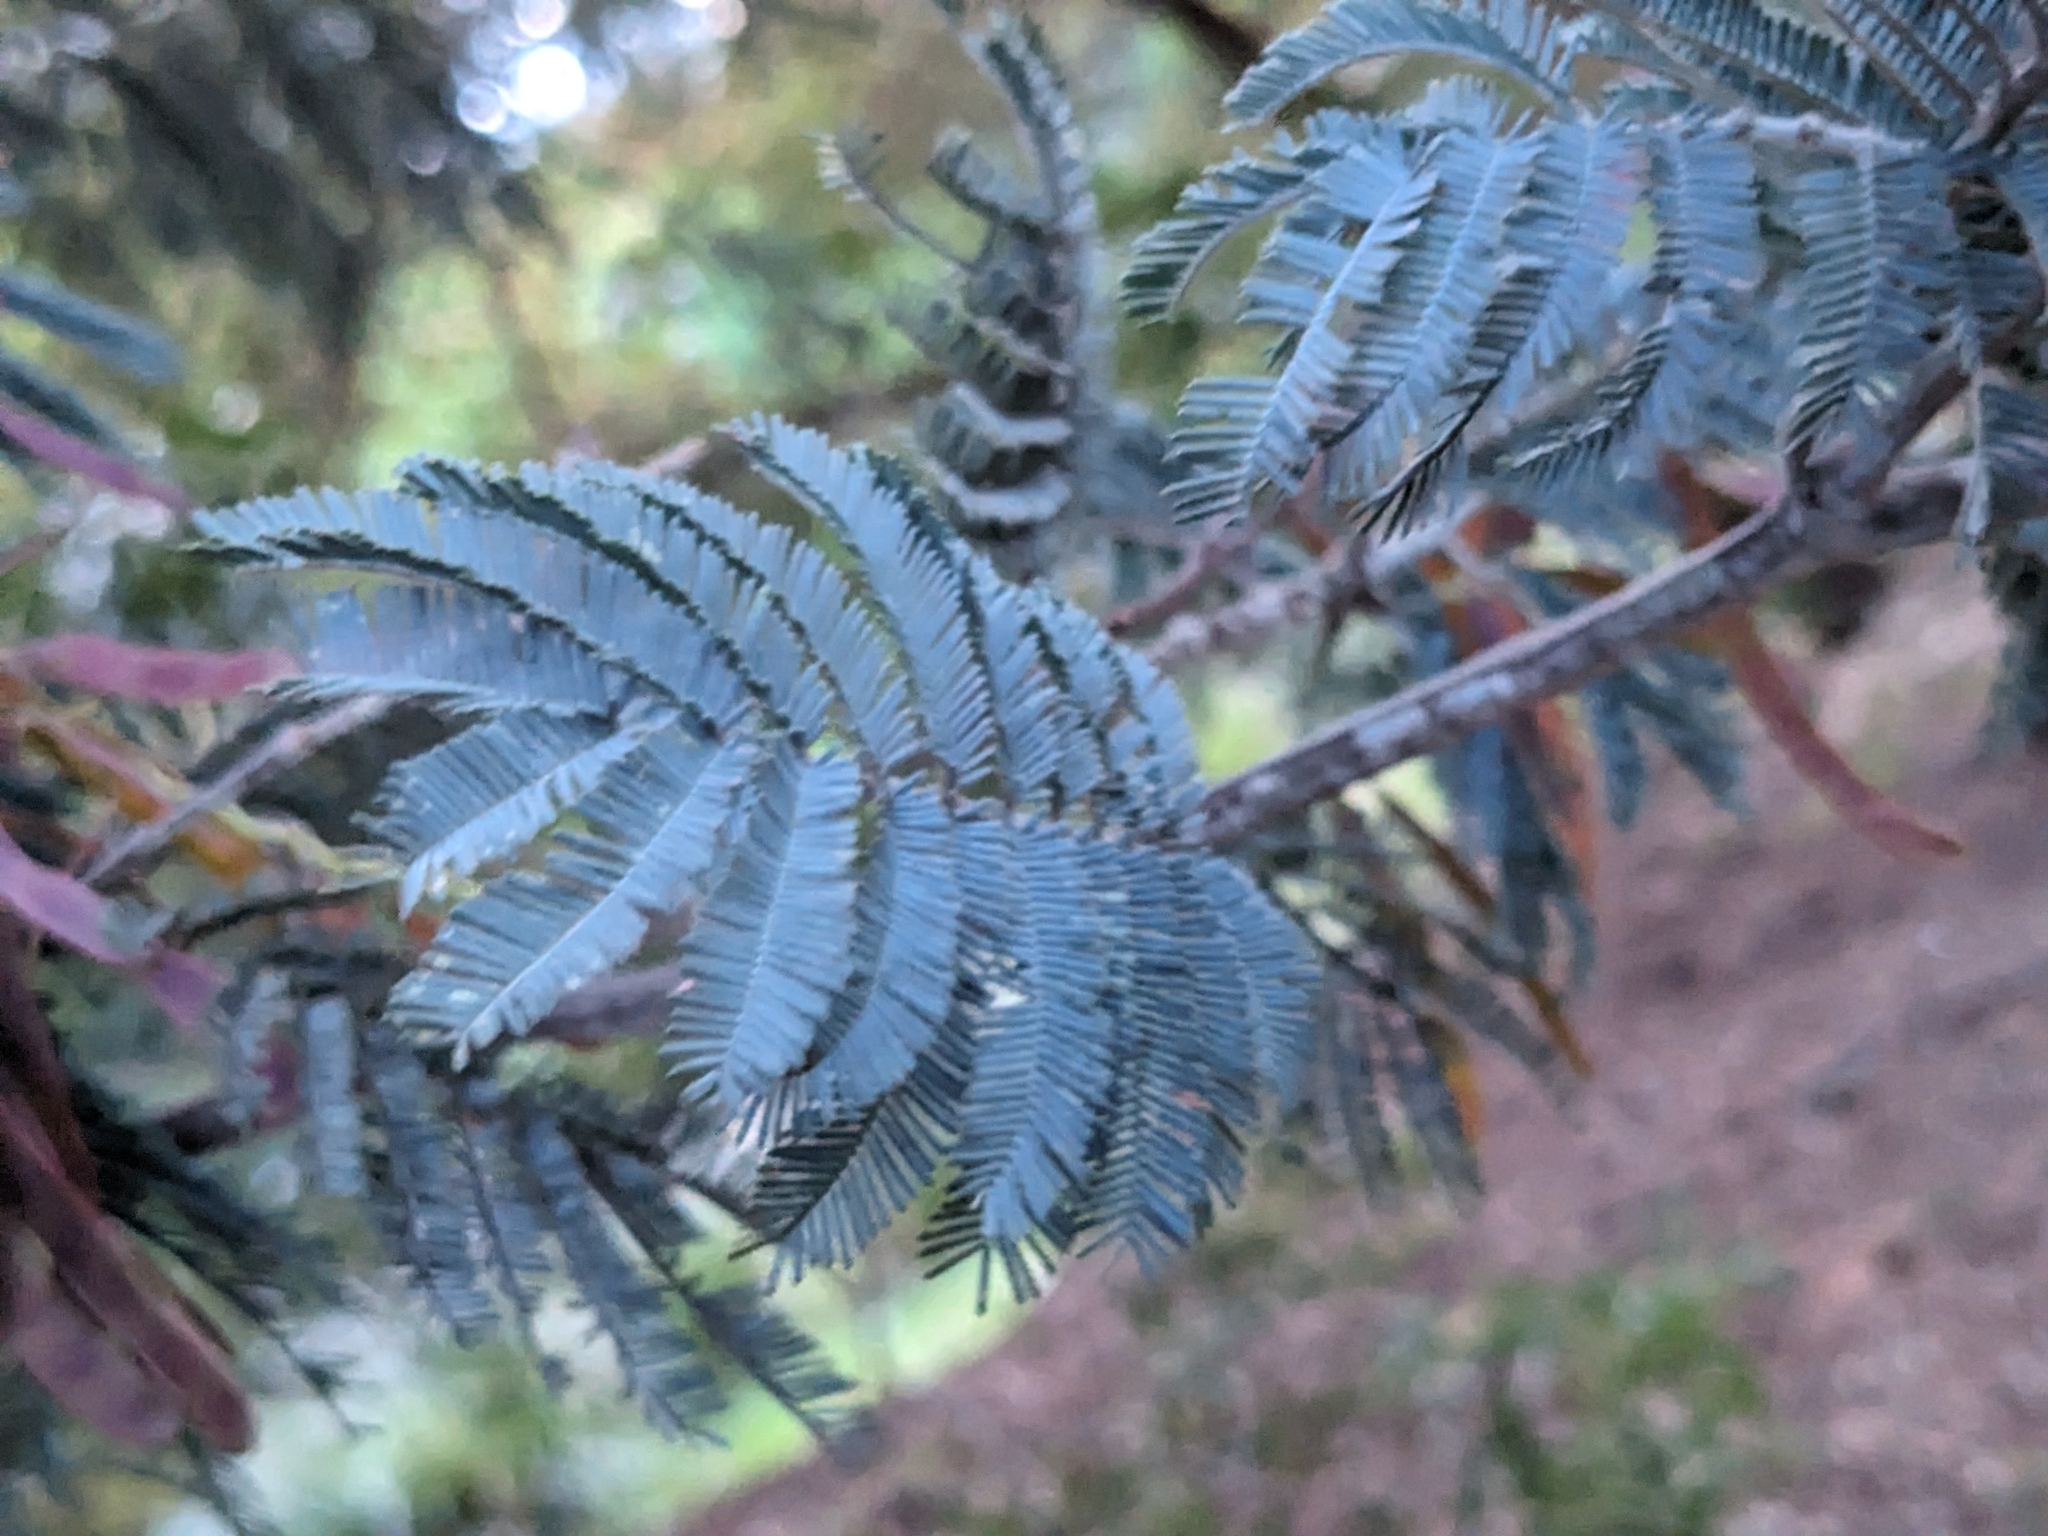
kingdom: Plantae
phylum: Tracheophyta
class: Magnoliopsida
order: Fabales
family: Fabaceae
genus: Acacia
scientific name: Acacia dealbata
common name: Silver wattle
